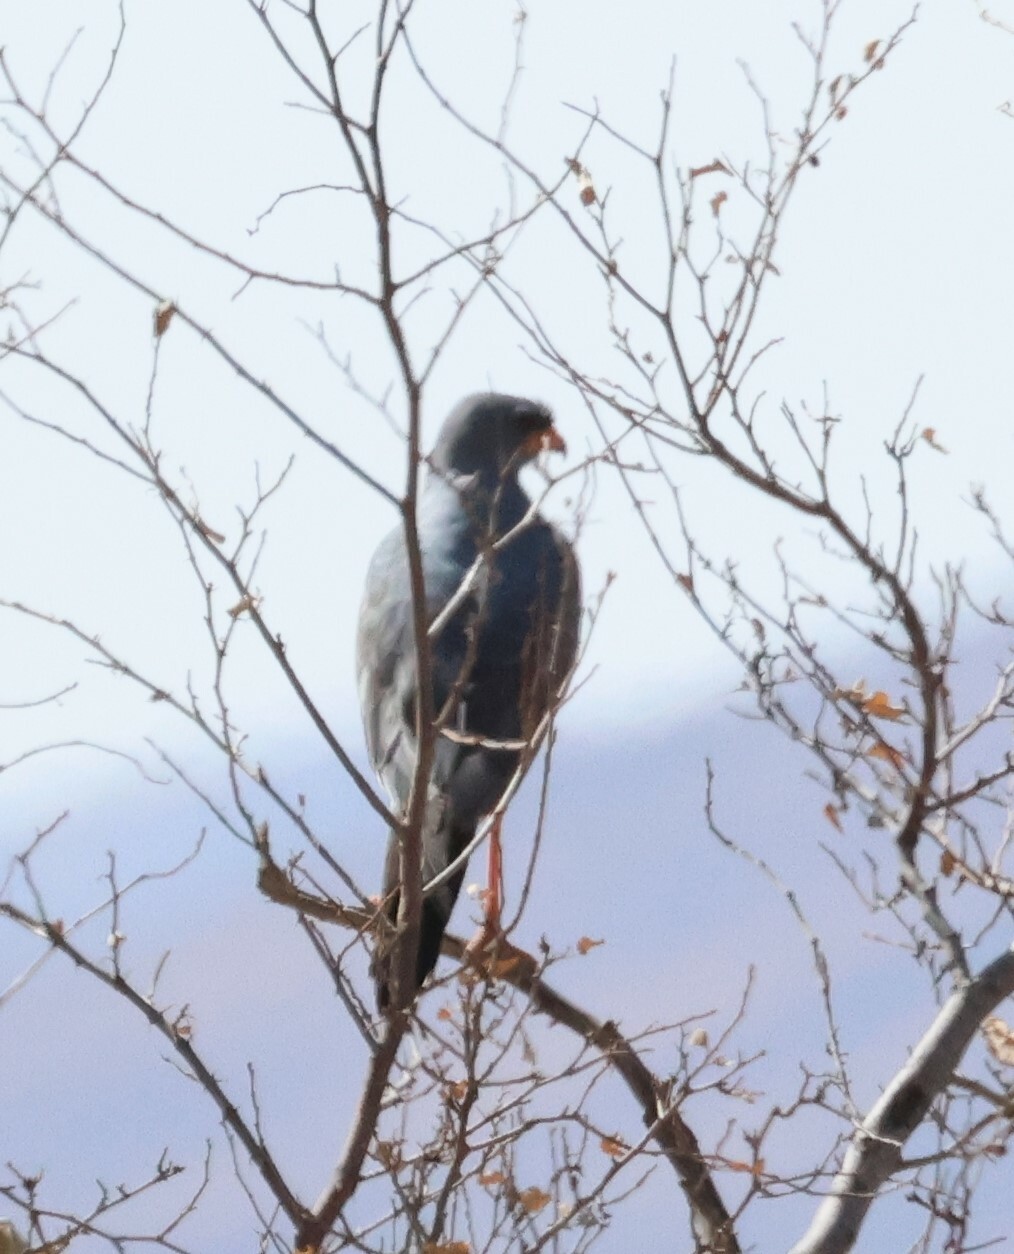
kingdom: Animalia
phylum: Chordata
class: Aves
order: Accipitriformes
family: Accipitridae
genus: Melierax
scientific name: Melierax canorus
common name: Pale chanting-goshawk
